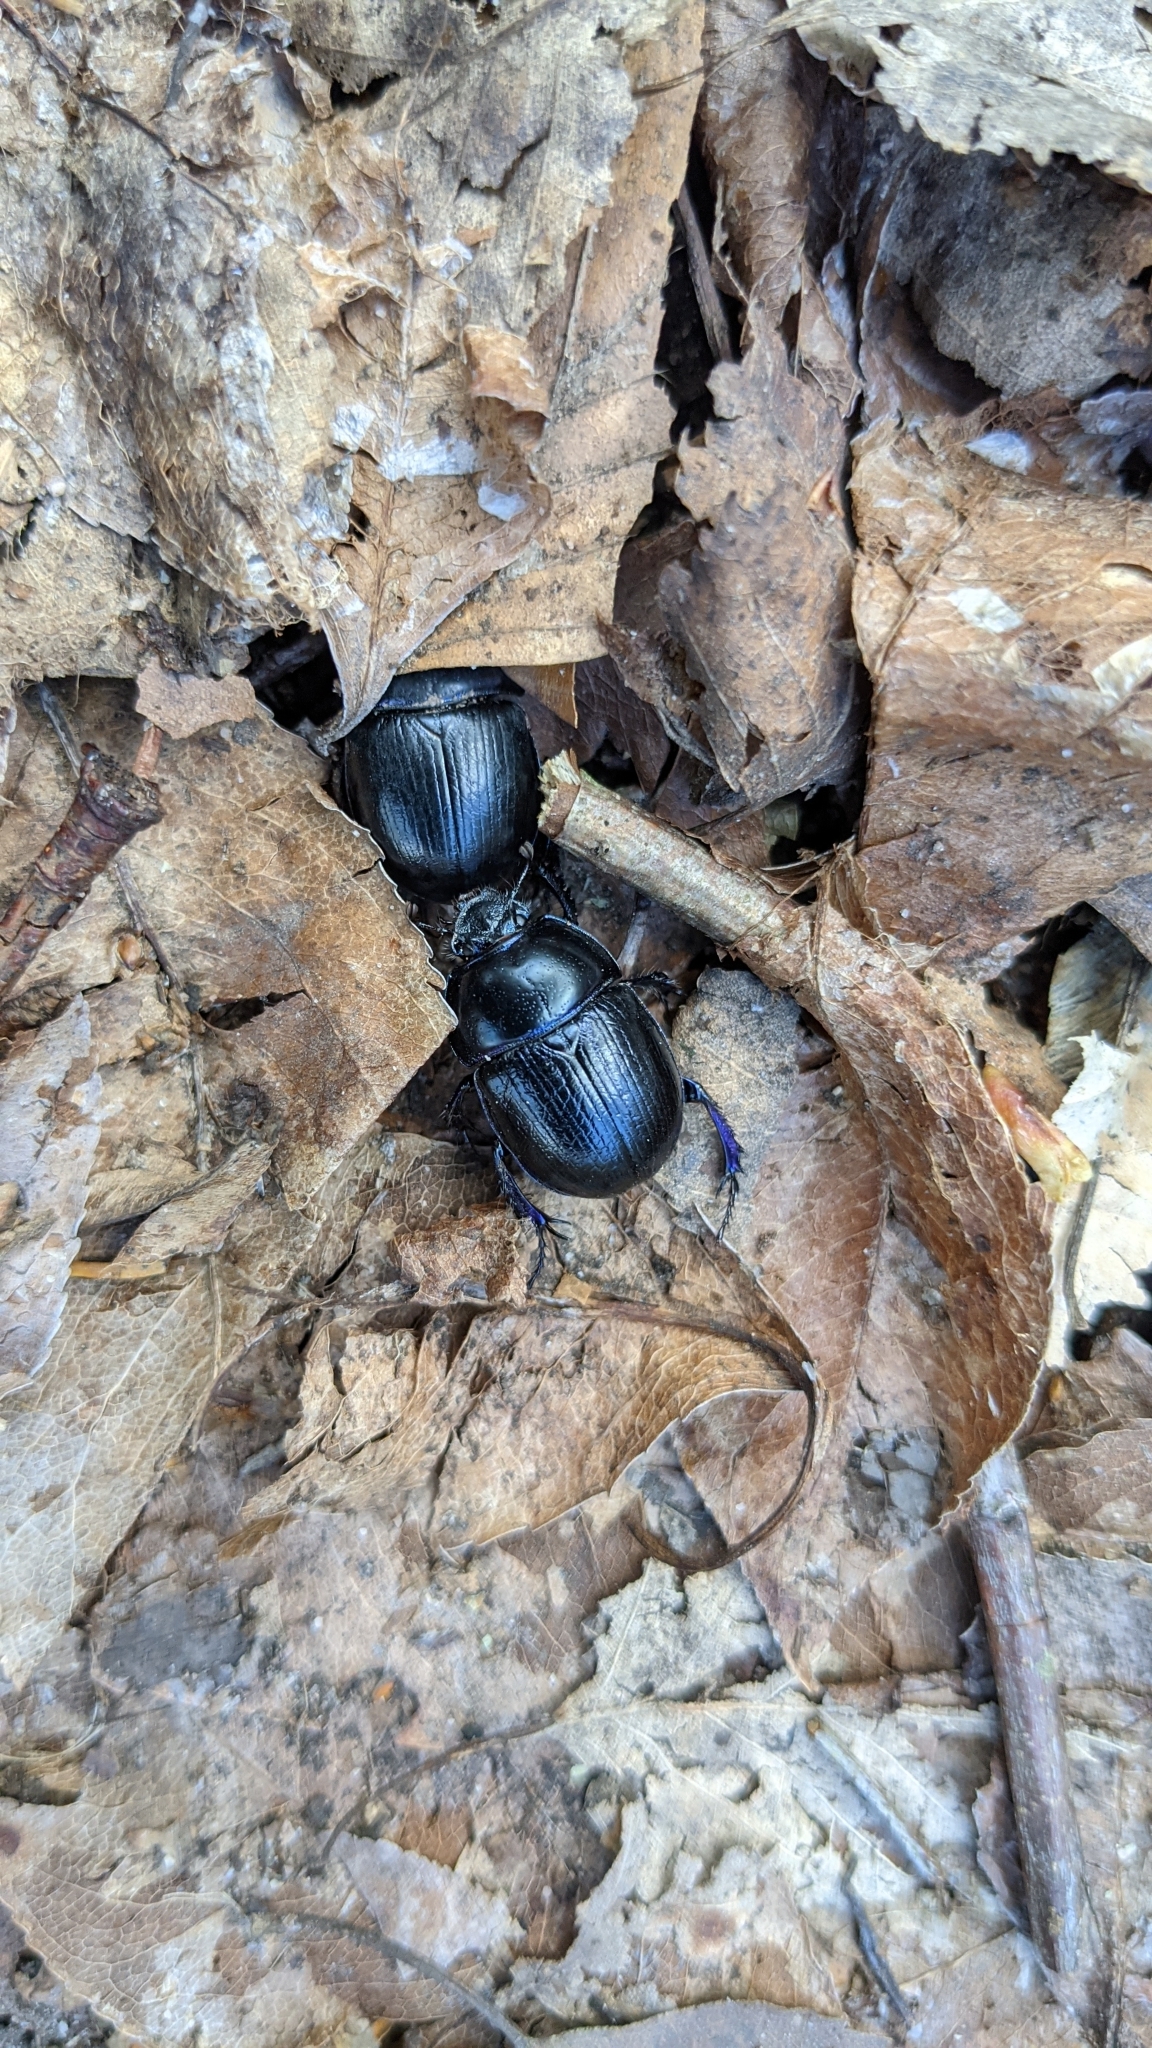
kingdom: Animalia
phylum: Arthropoda
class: Insecta
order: Coleoptera
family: Geotrupidae
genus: Anoplotrupes
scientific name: Anoplotrupes stercorosus
